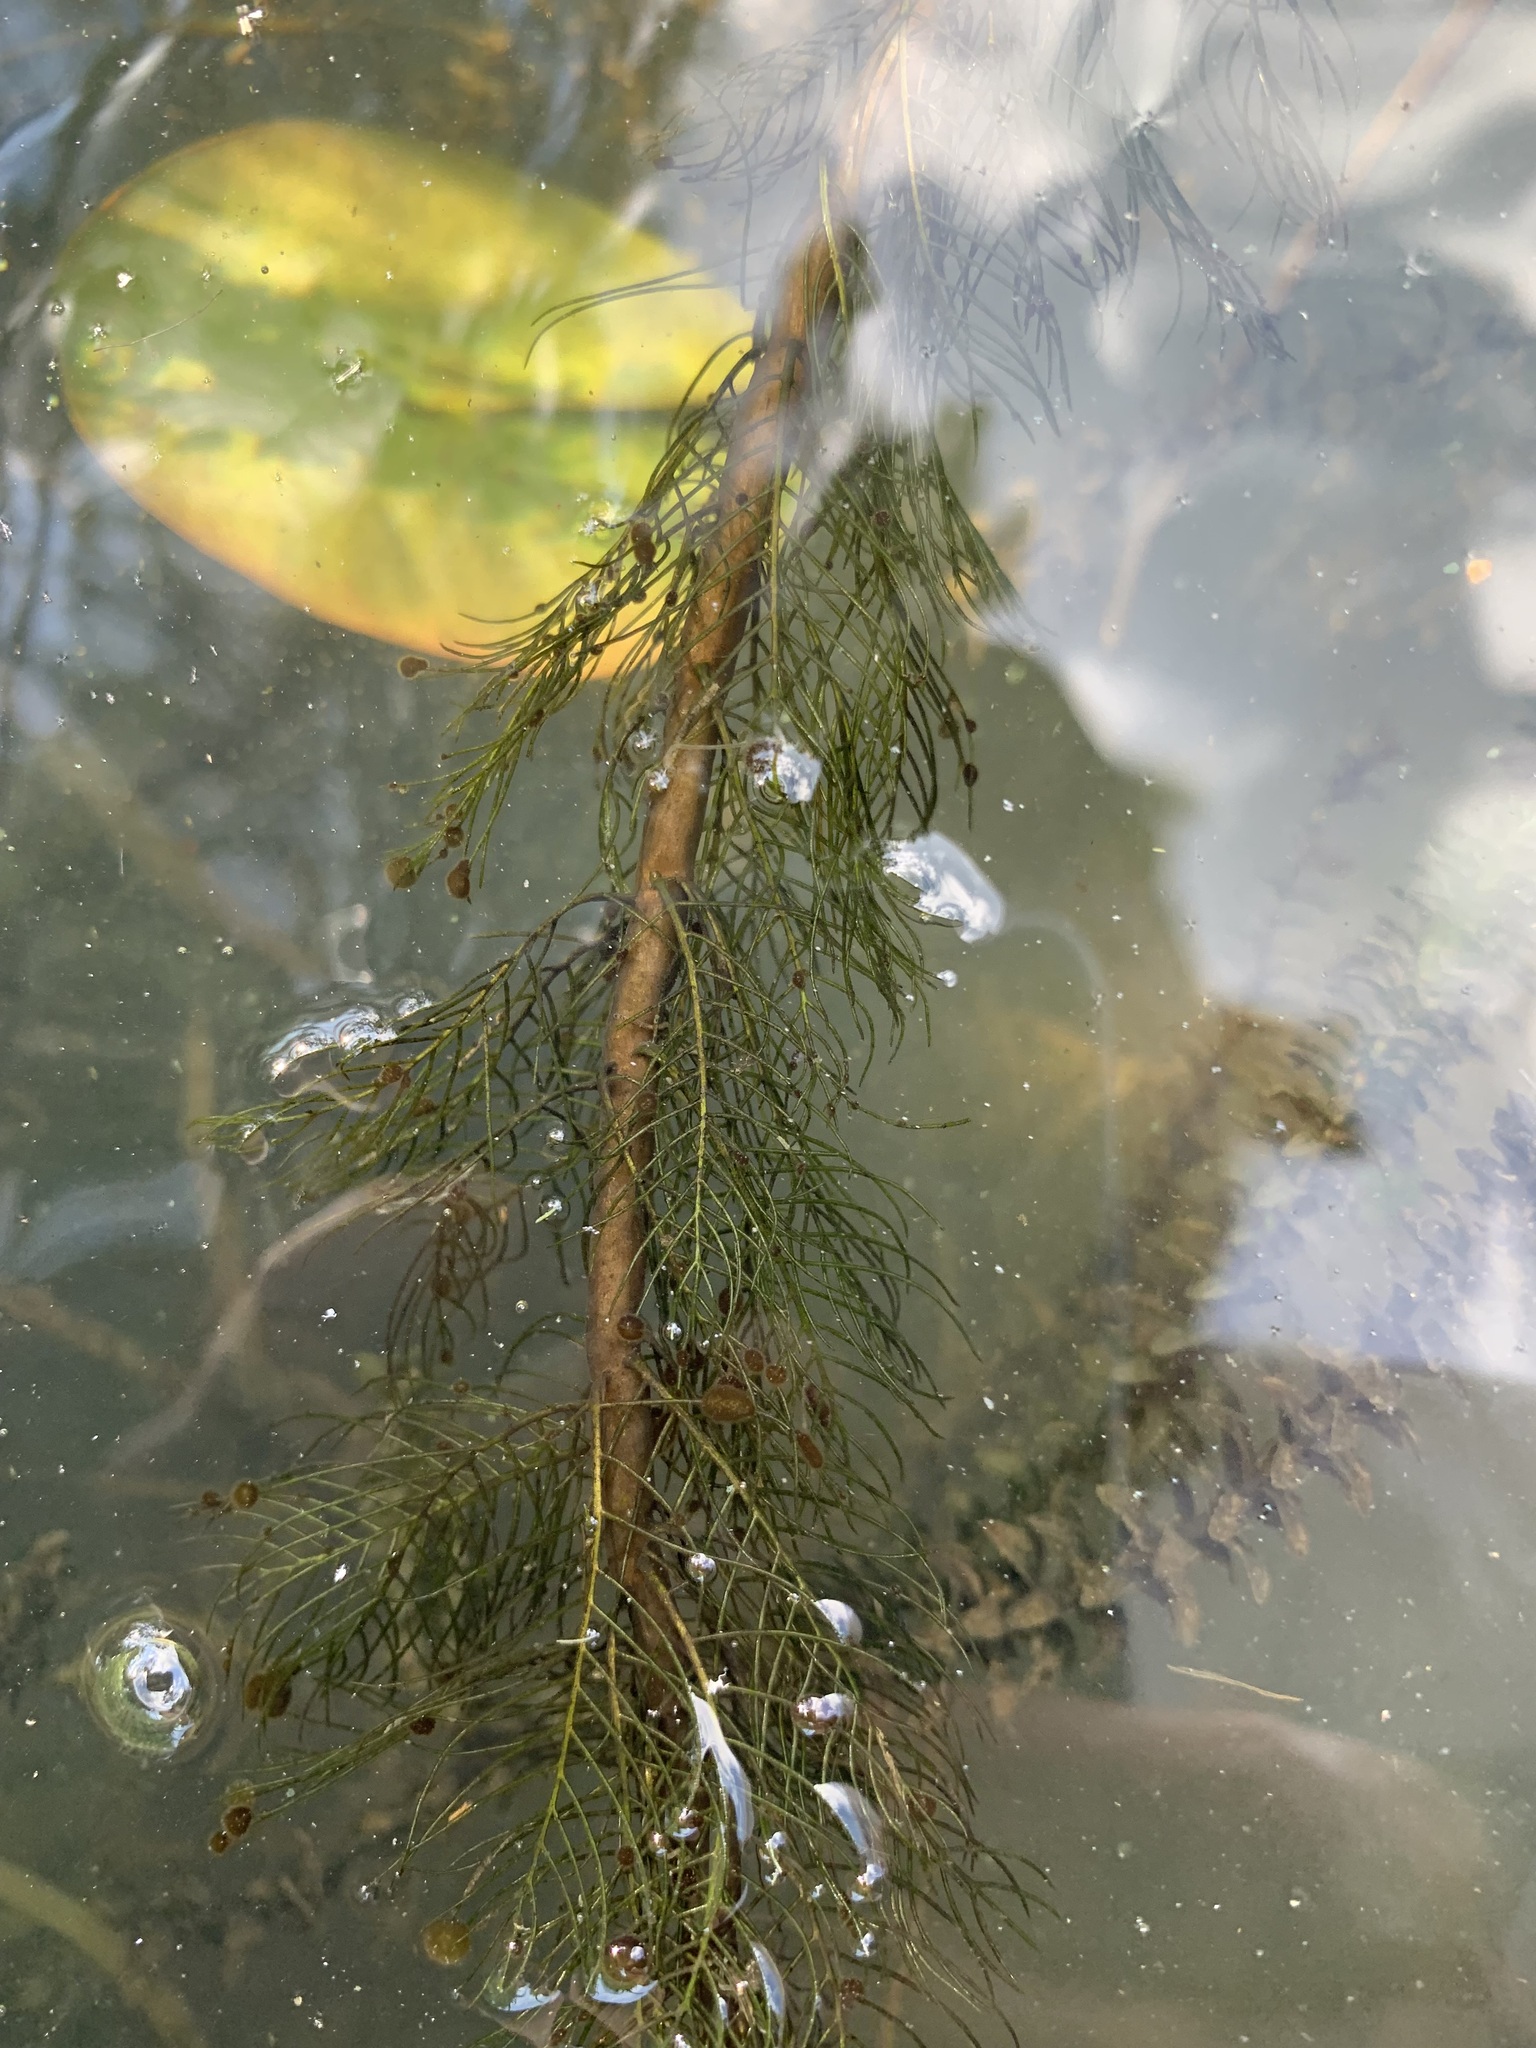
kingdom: Plantae
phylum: Tracheophyta
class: Magnoliopsida
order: Saxifragales
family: Haloragaceae
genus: Myriophyllum
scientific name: Myriophyllum verticillatum
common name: Whorled water-milfoil
